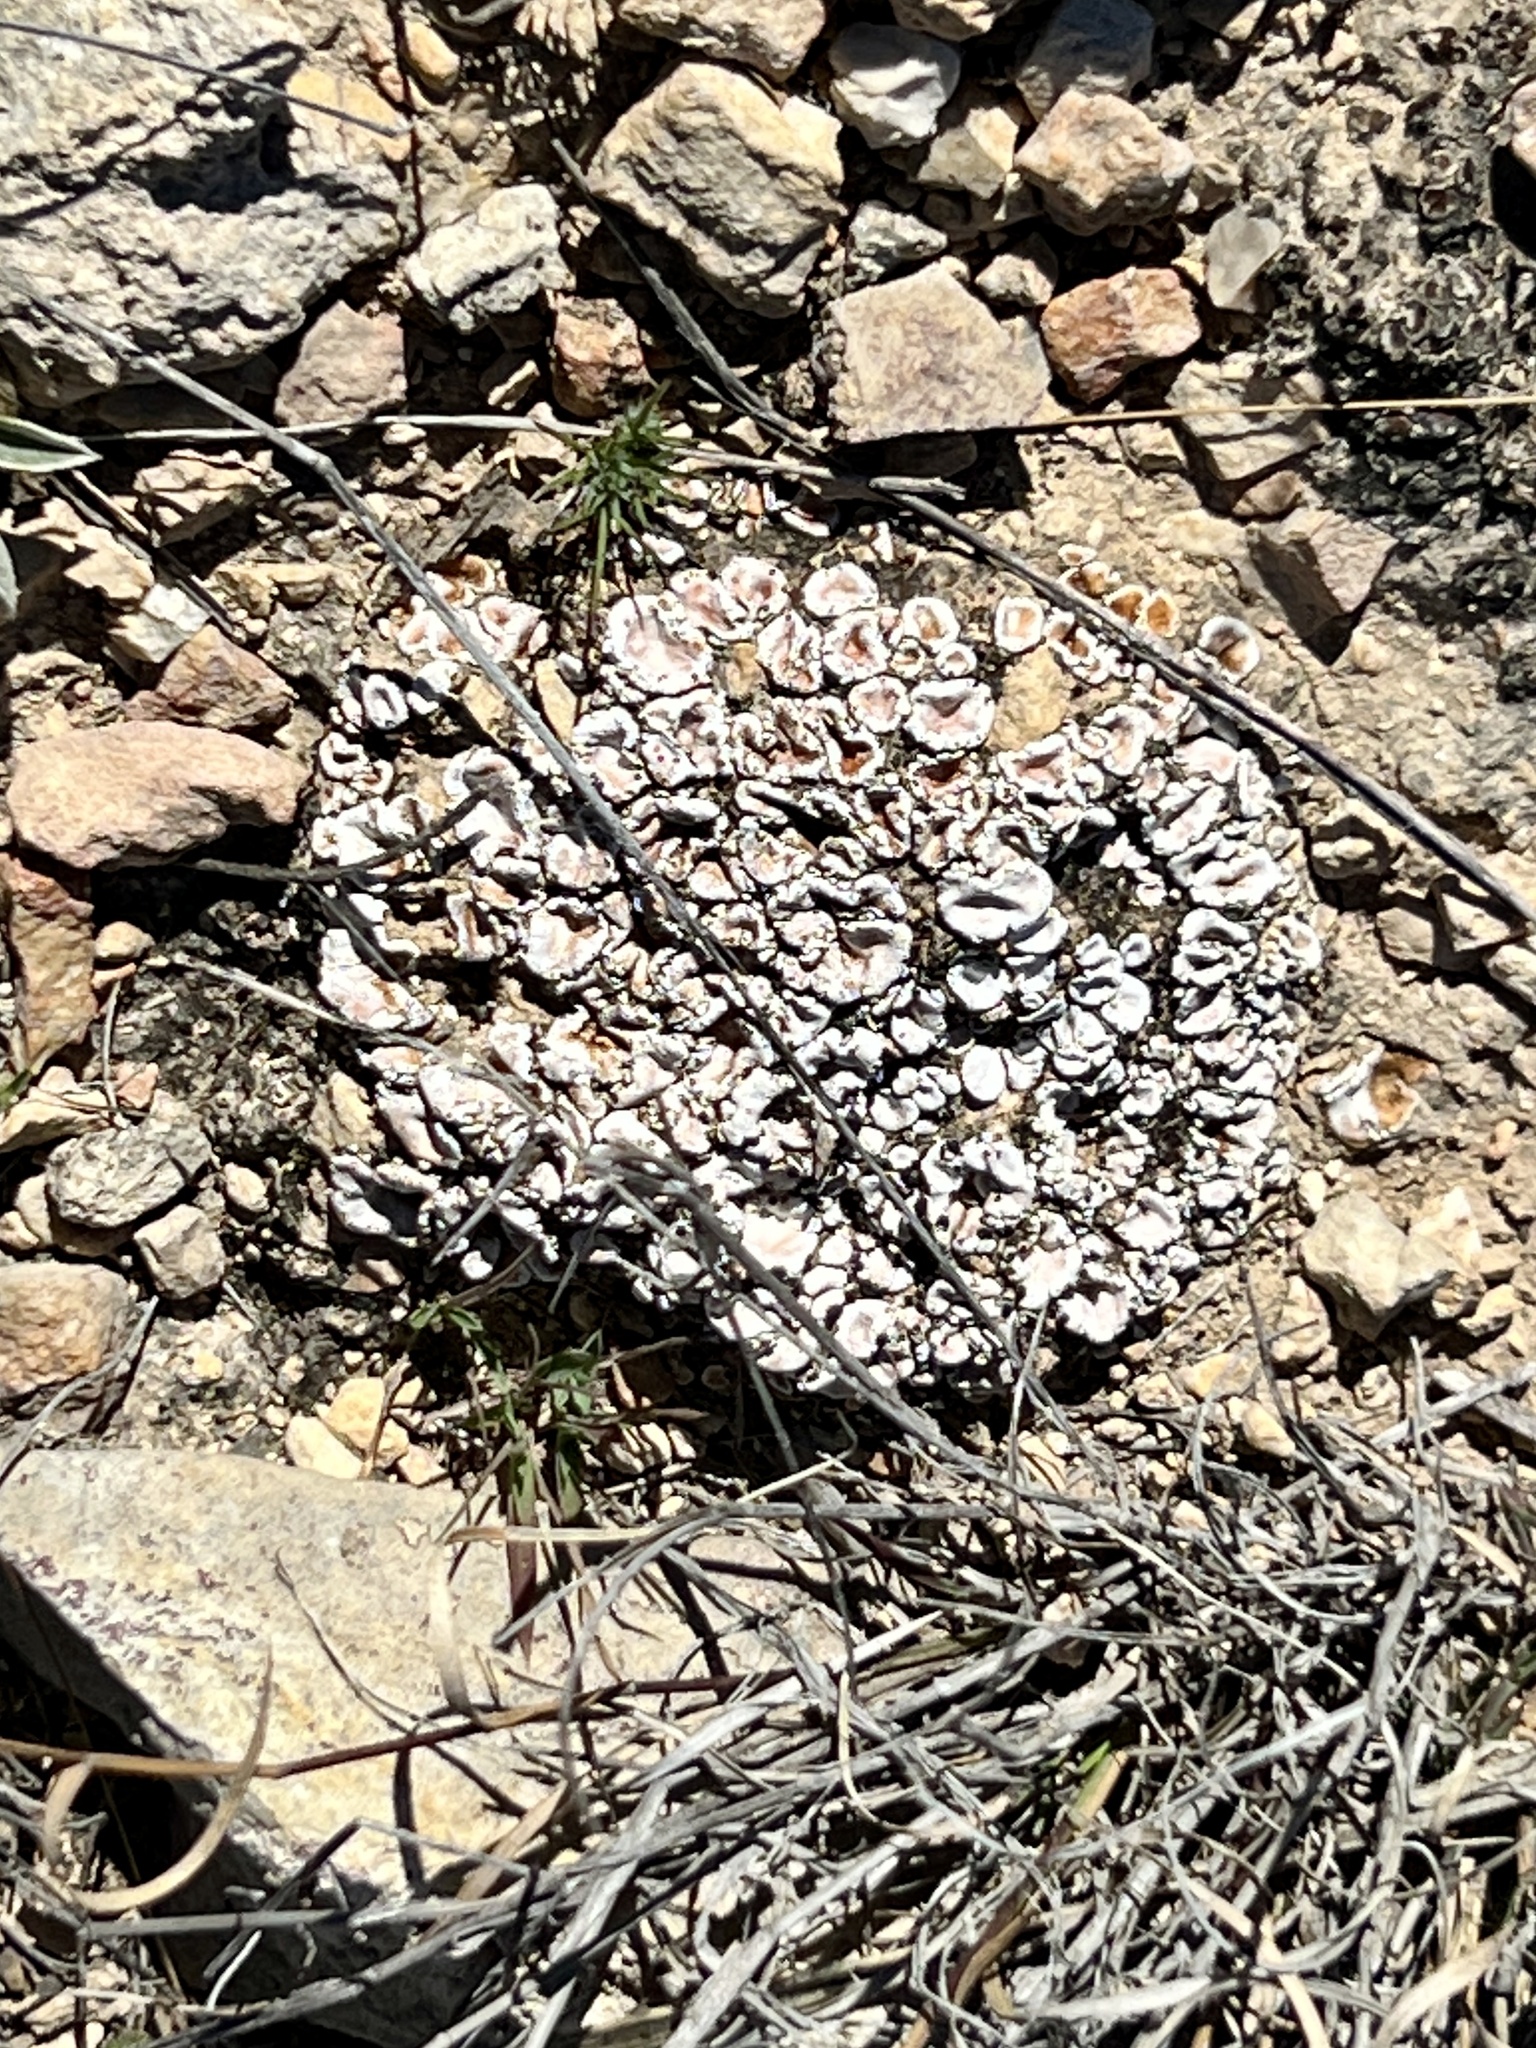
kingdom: Fungi
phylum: Ascomycota
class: Lecanoromycetes
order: Lecanorales
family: Psoraceae
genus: Psora
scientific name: Psora crenata
